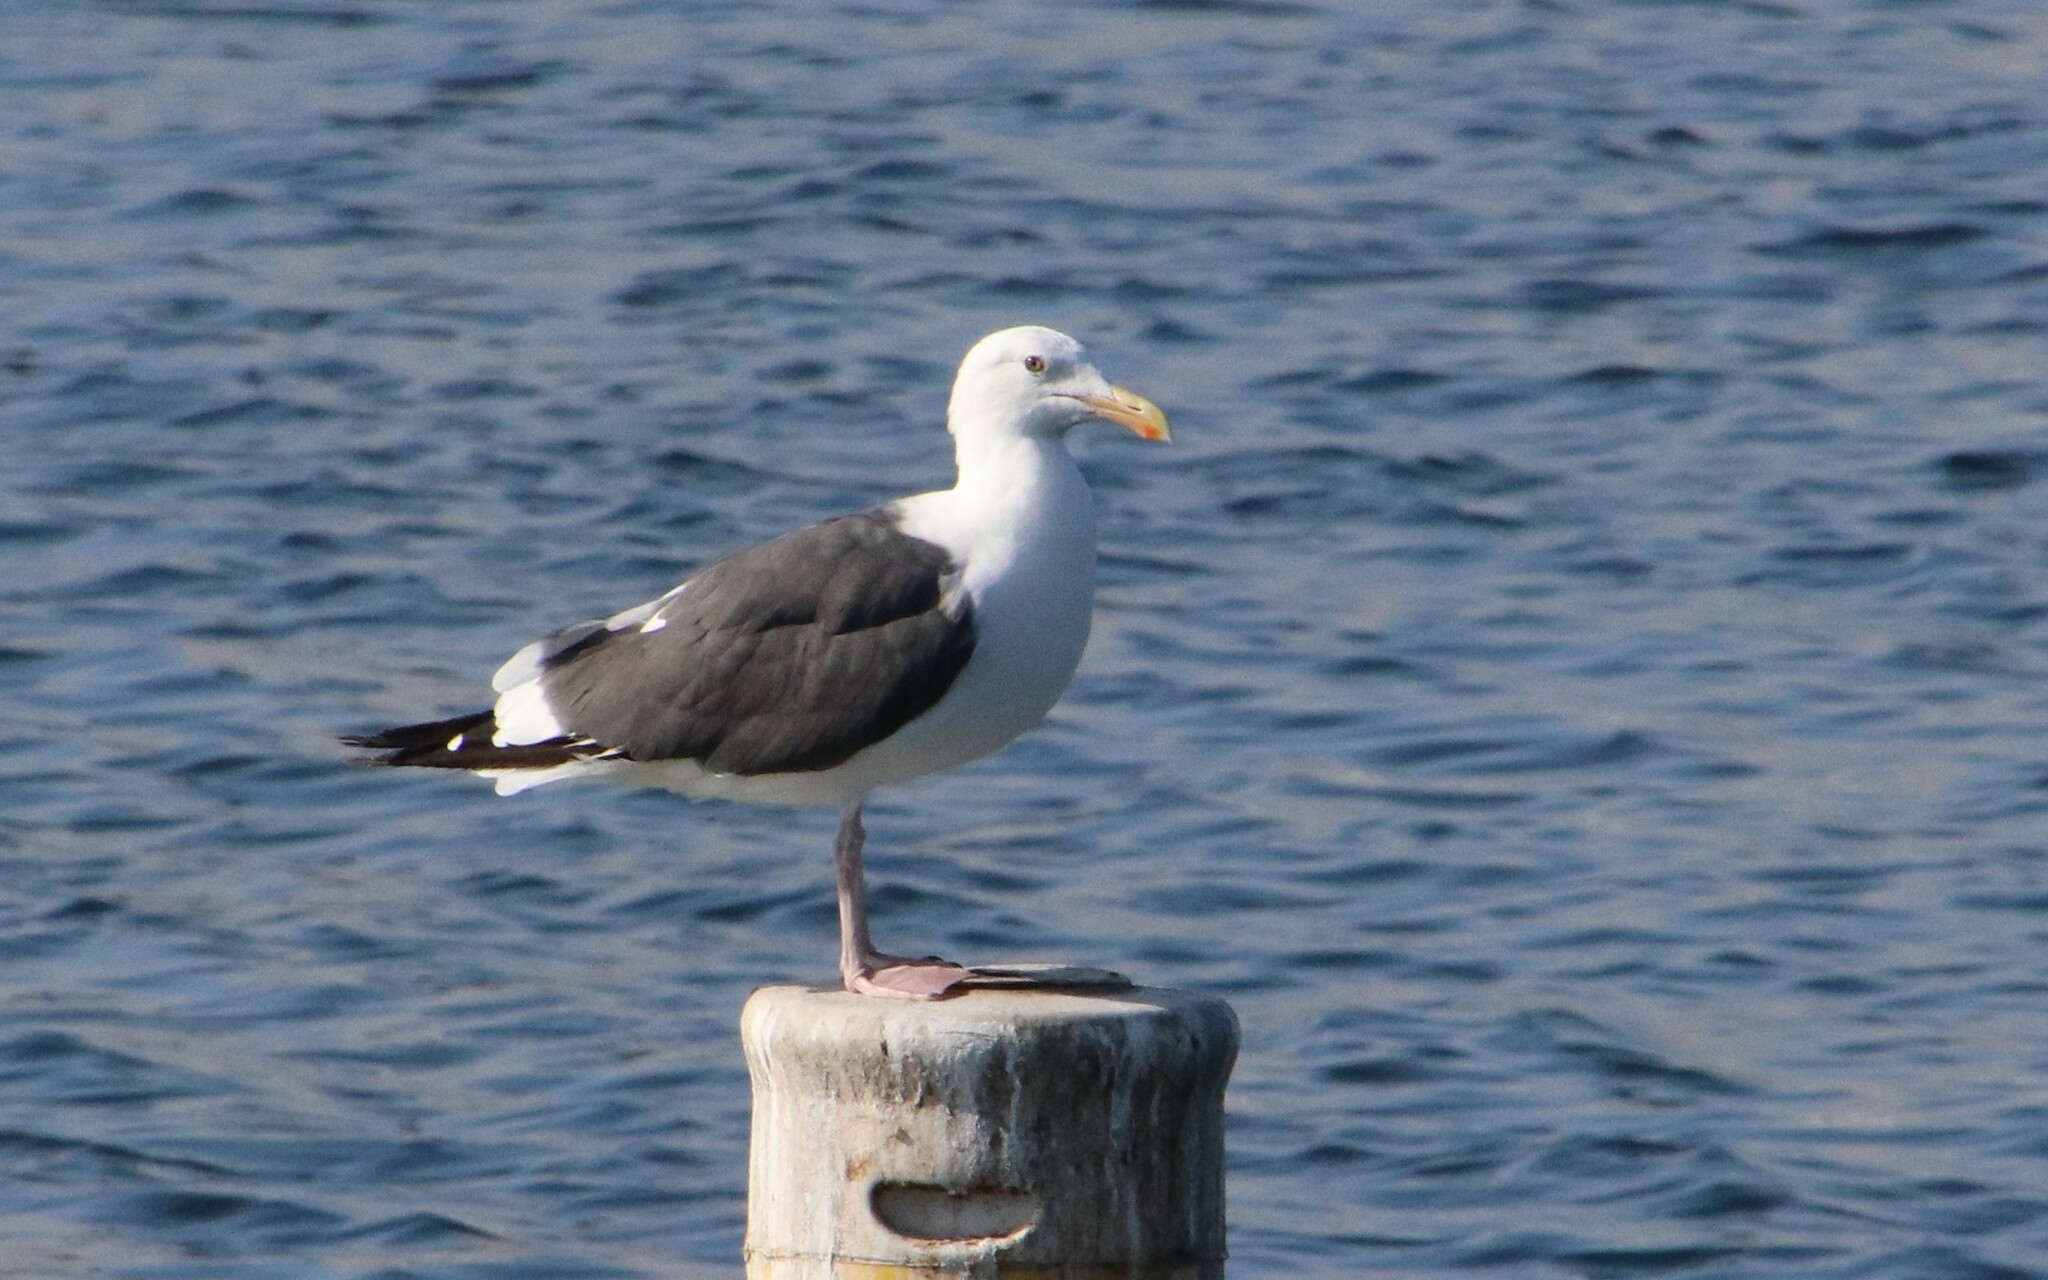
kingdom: Animalia
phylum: Chordata
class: Aves
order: Charadriiformes
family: Laridae
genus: Larus
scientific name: Larus occidentalis
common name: Western gull
